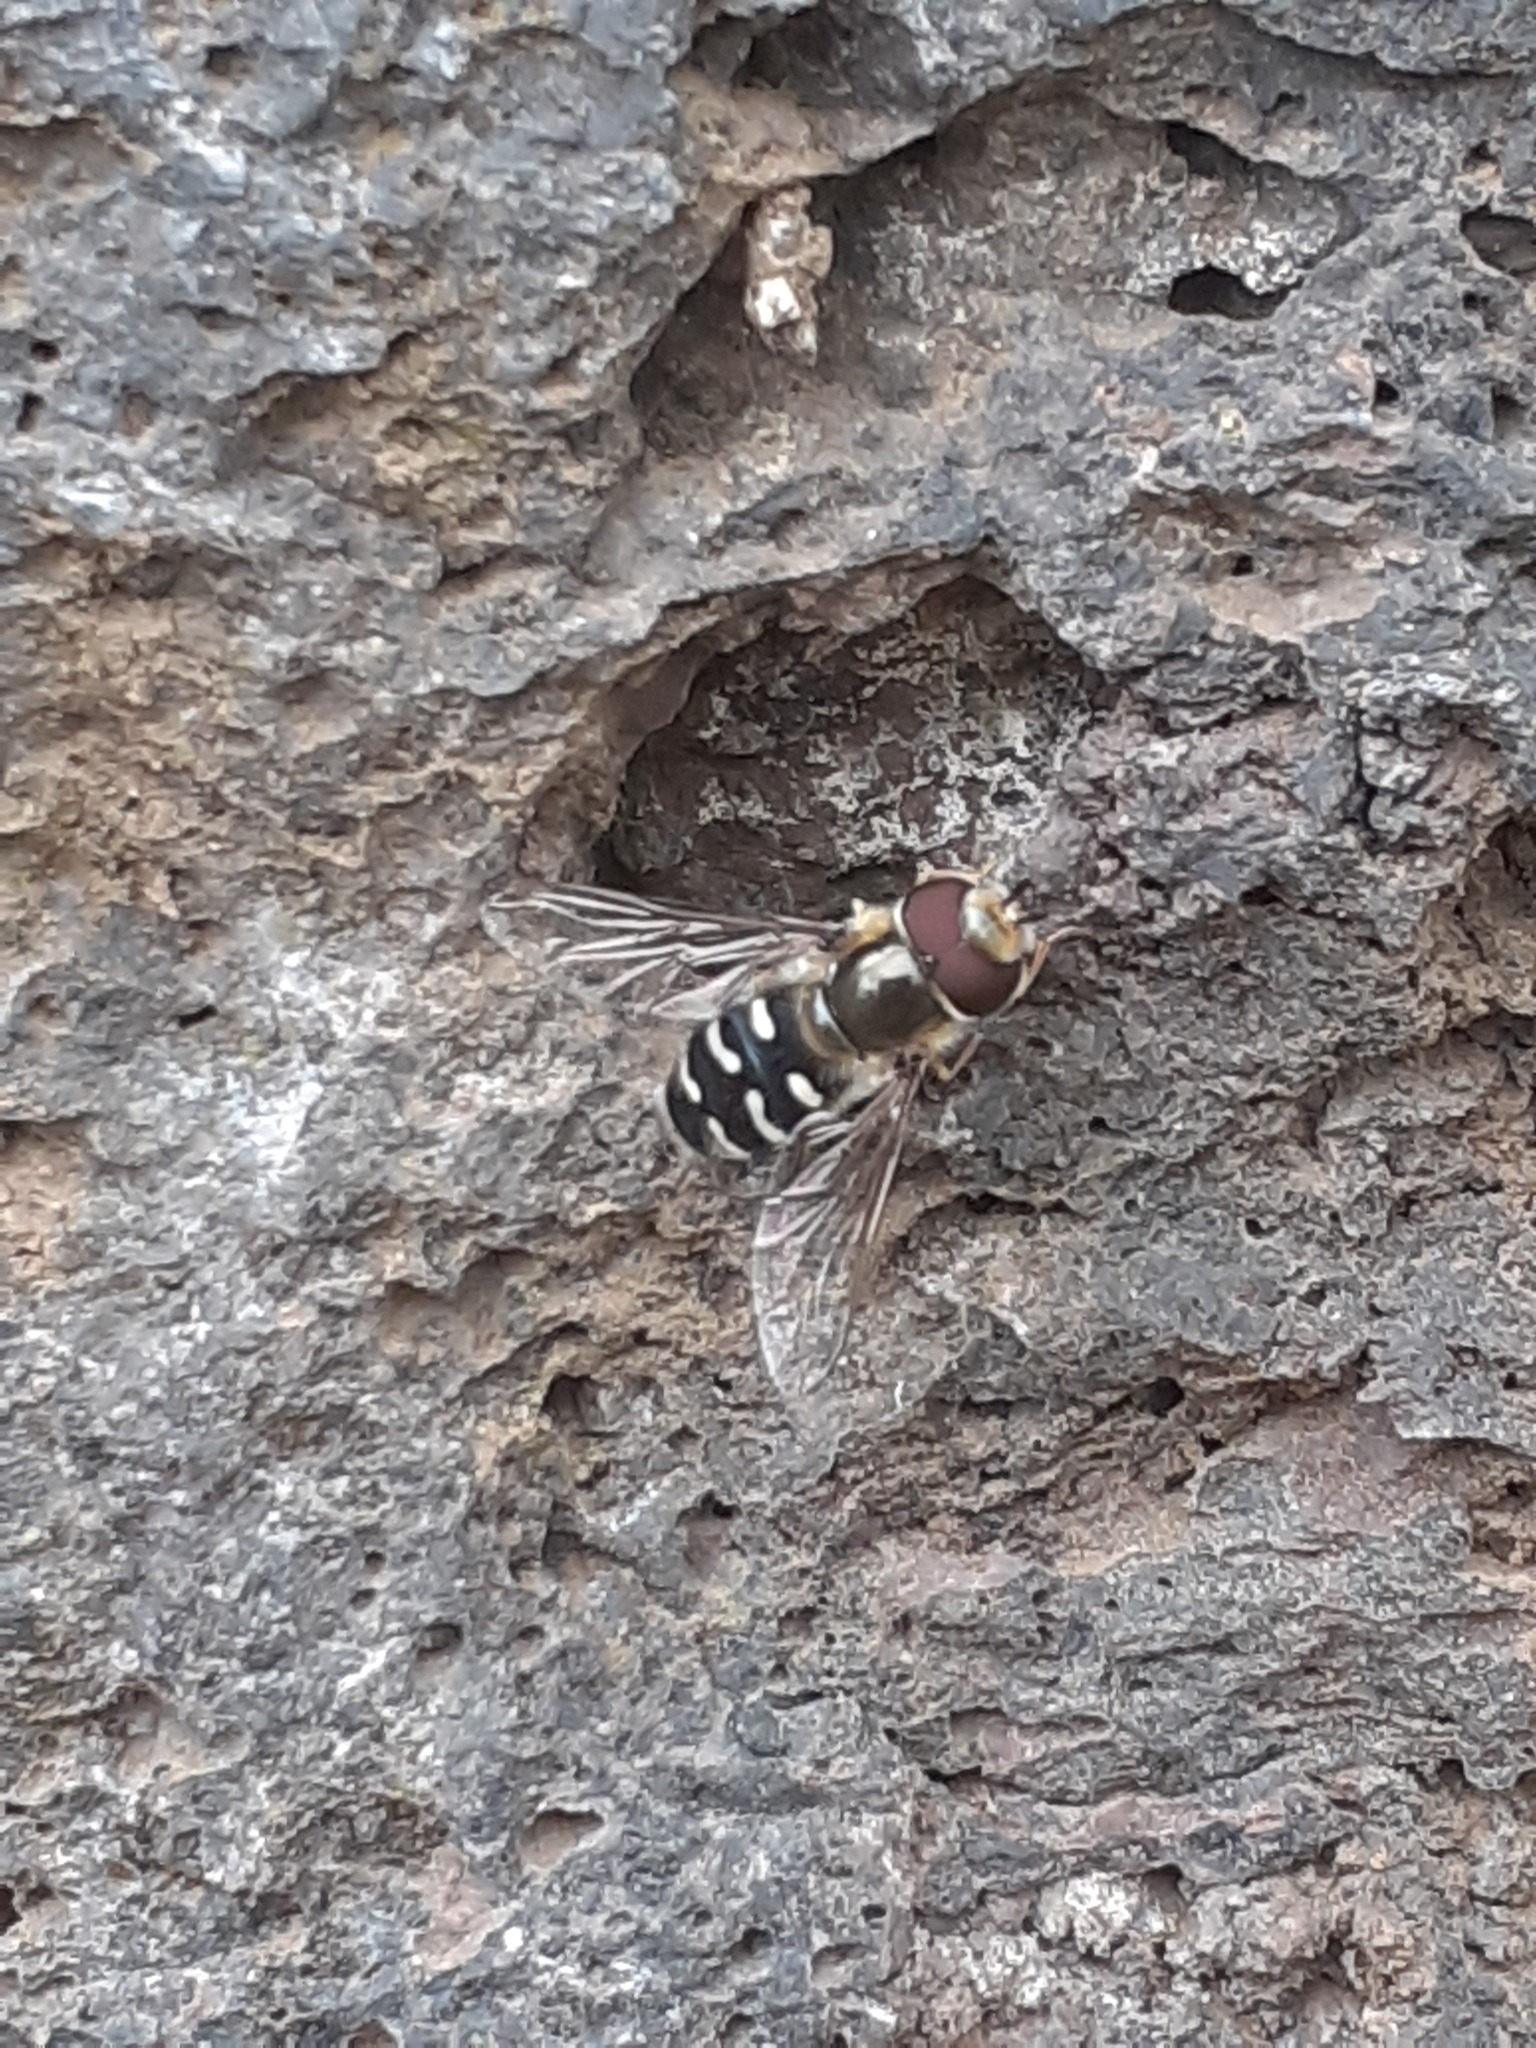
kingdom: Animalia
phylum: Arthropoda
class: Insecta
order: Diptera
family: Syrphidae
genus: Scaeva
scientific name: Scaeva pyrastri
